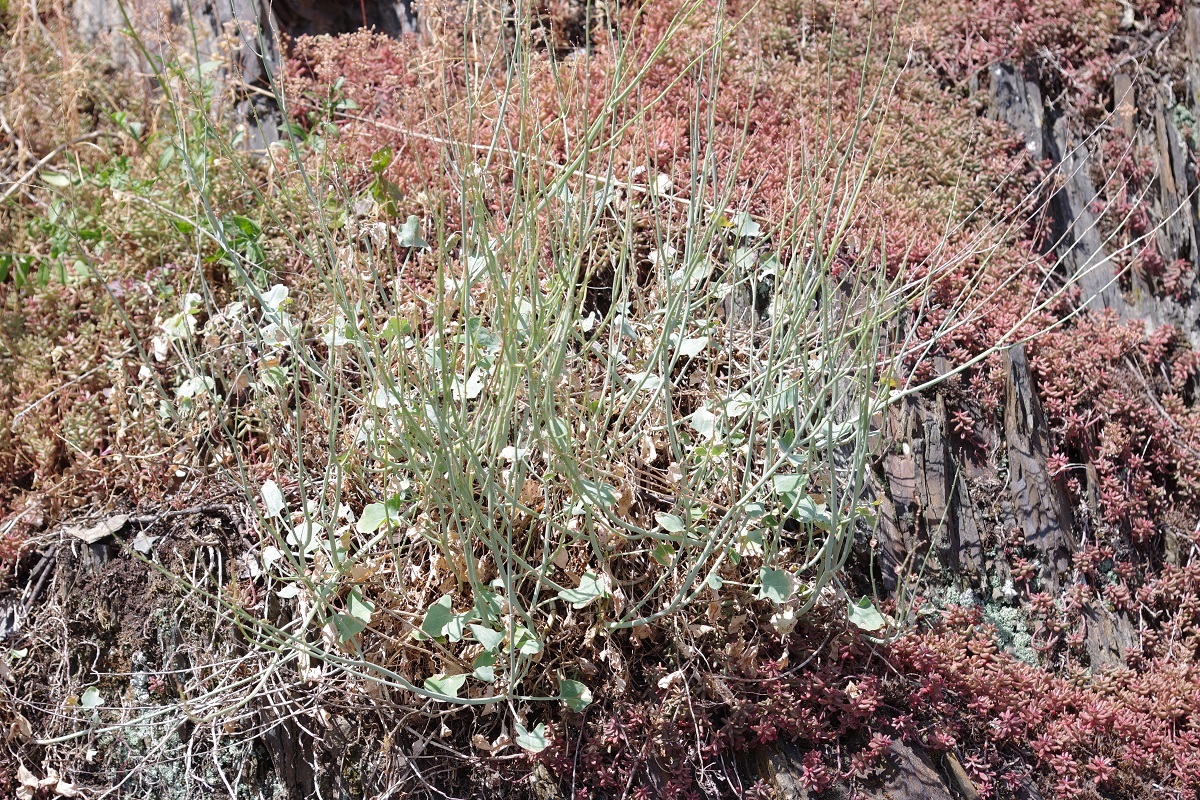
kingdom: Plantae
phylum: Tracheophyta
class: Magnoliopsida
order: Caryophyllales
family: Polygonaceae
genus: Rumex
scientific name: Rumex scutatus
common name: French sorrel
